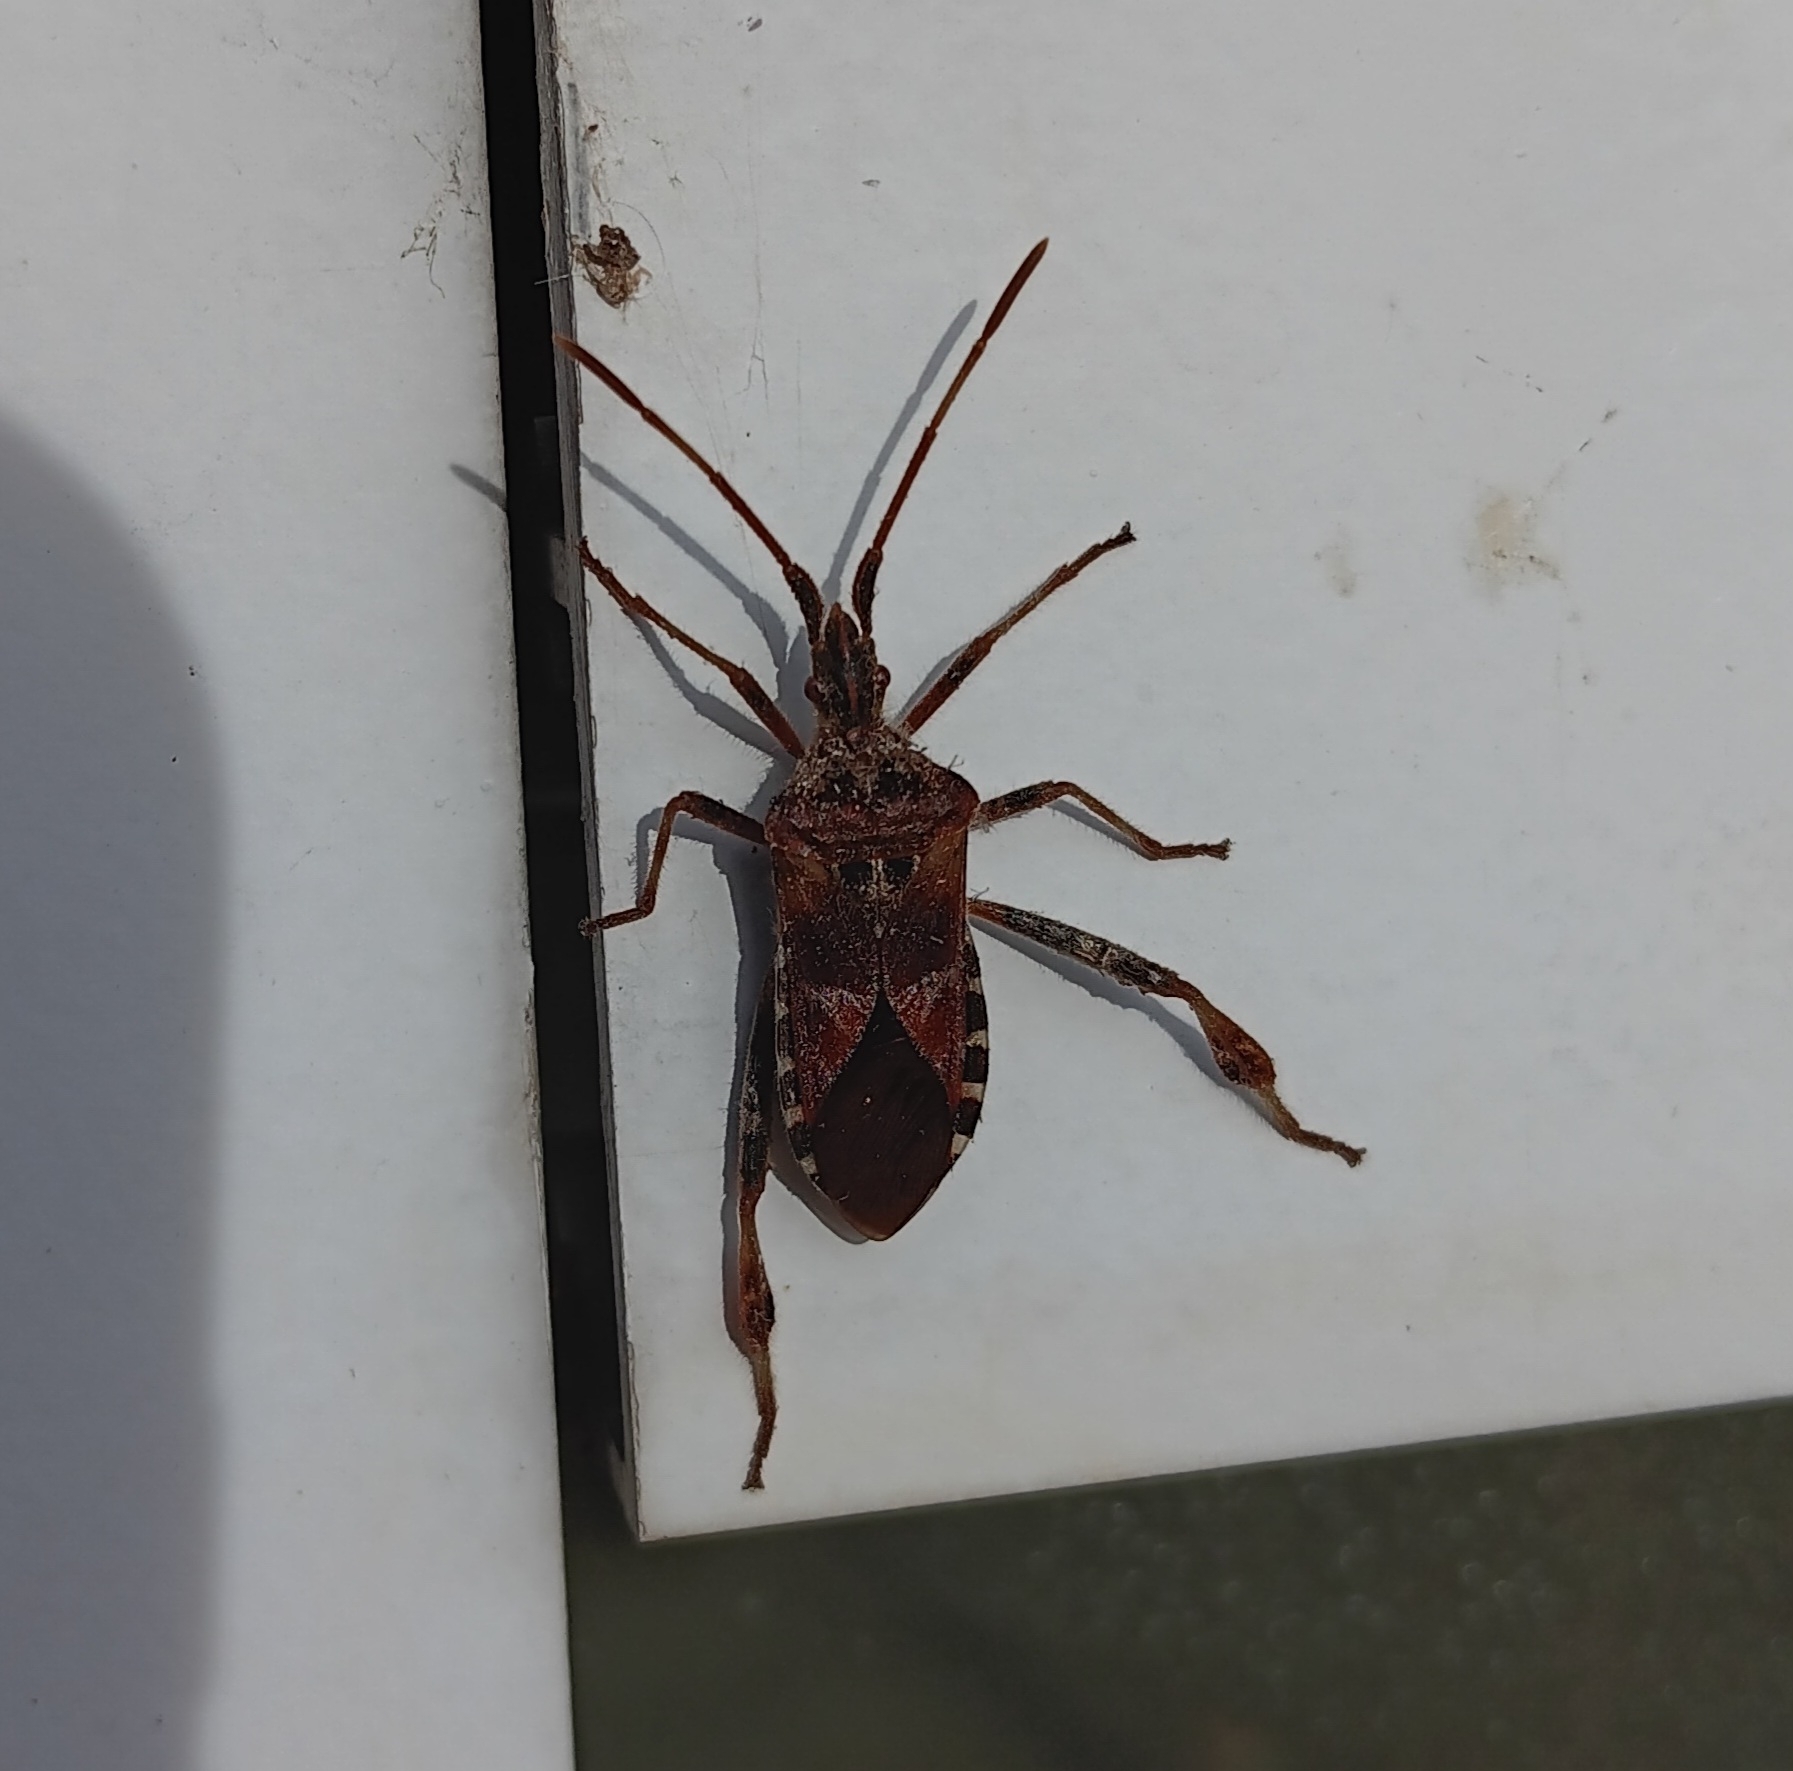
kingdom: Animalia
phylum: Arthropoda
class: Insecta
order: Hemiptera
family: Coreidae
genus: Leptoglossus
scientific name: Leptoglossus occidentalis
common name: Western conifer-seed bug
